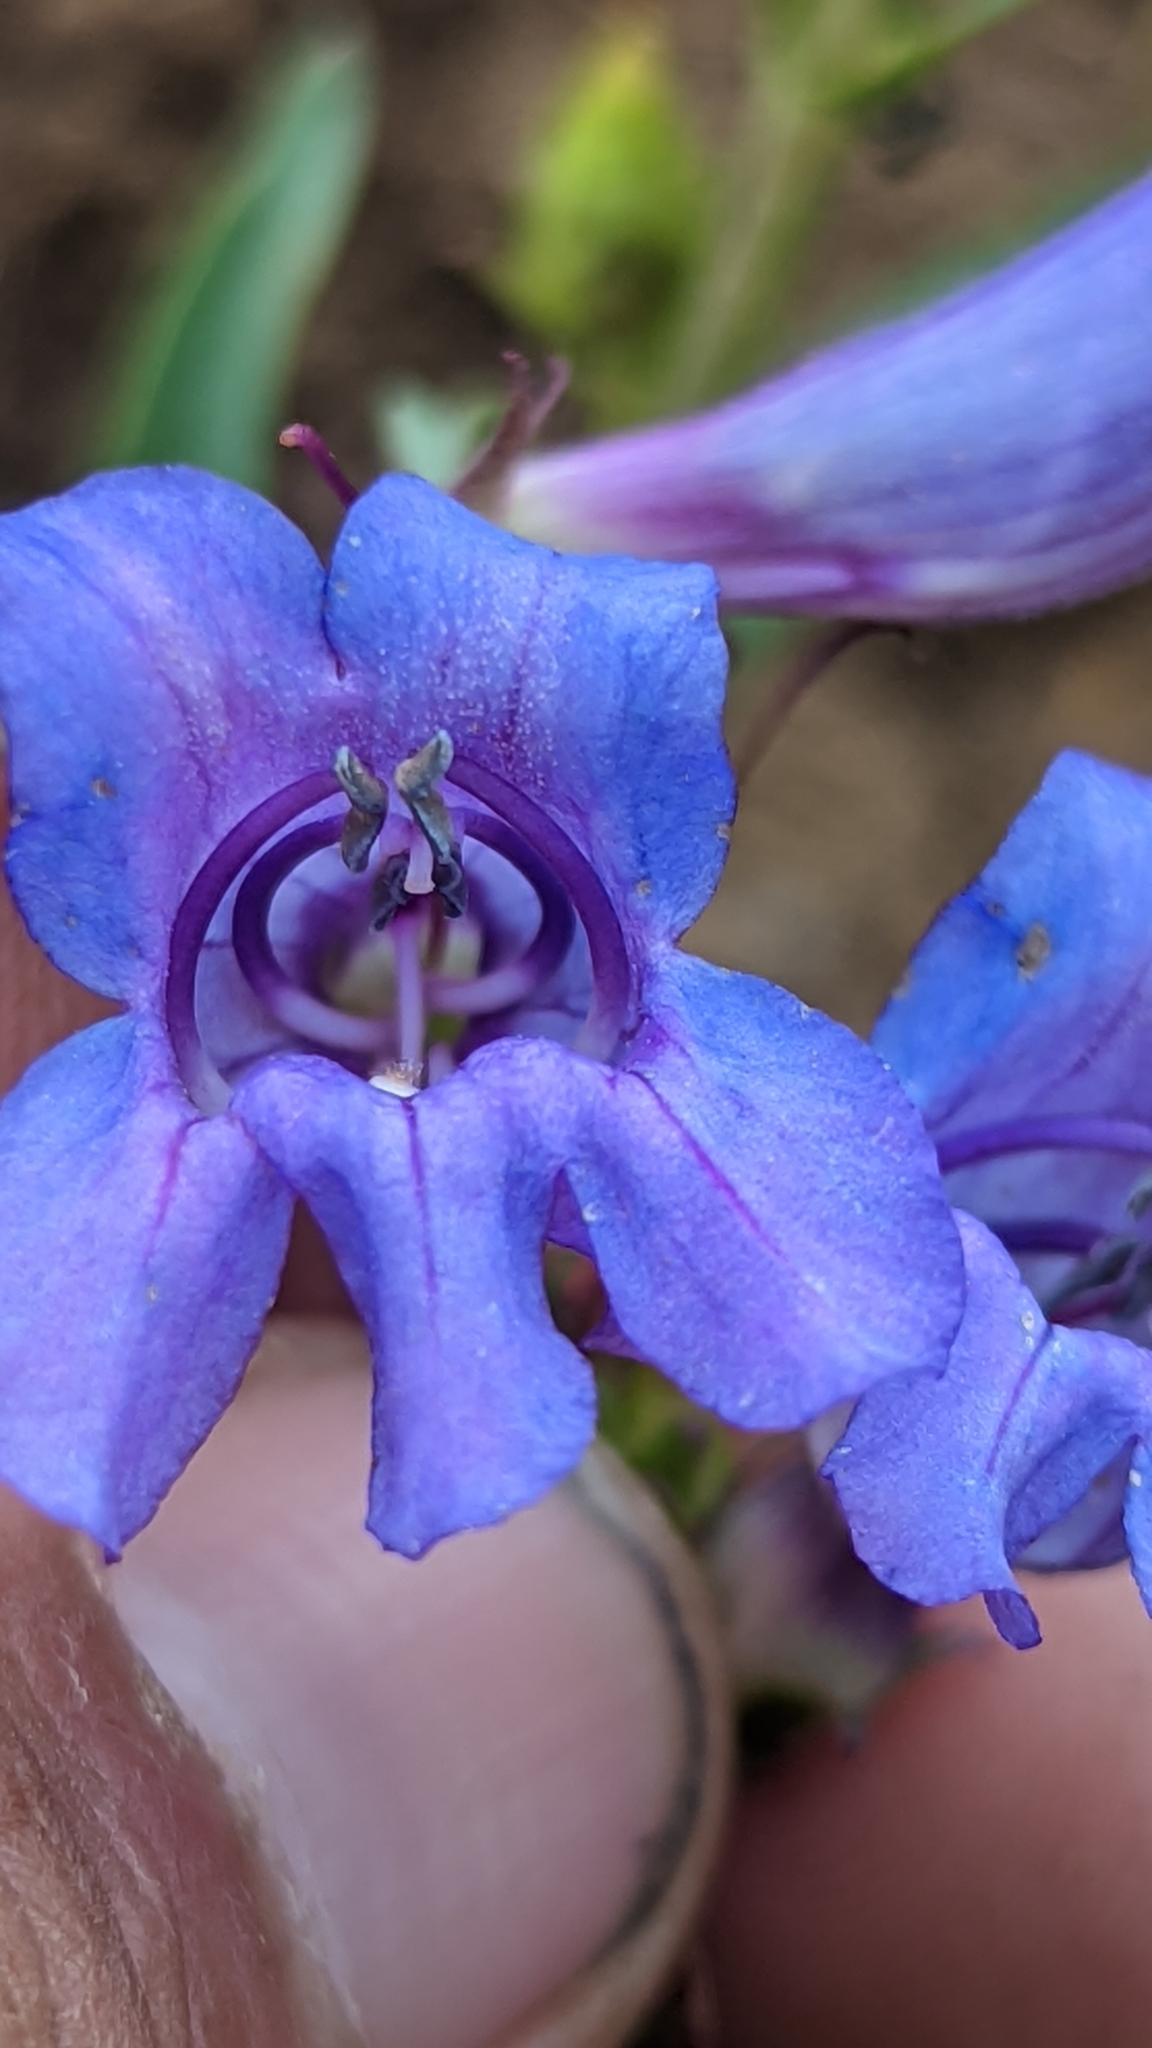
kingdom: Plantae
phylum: Tracheophyta
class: Magnoliopsida
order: Lamiales
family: Plantaginaceae
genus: Penstemon
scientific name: Penstemon leiophyllus
